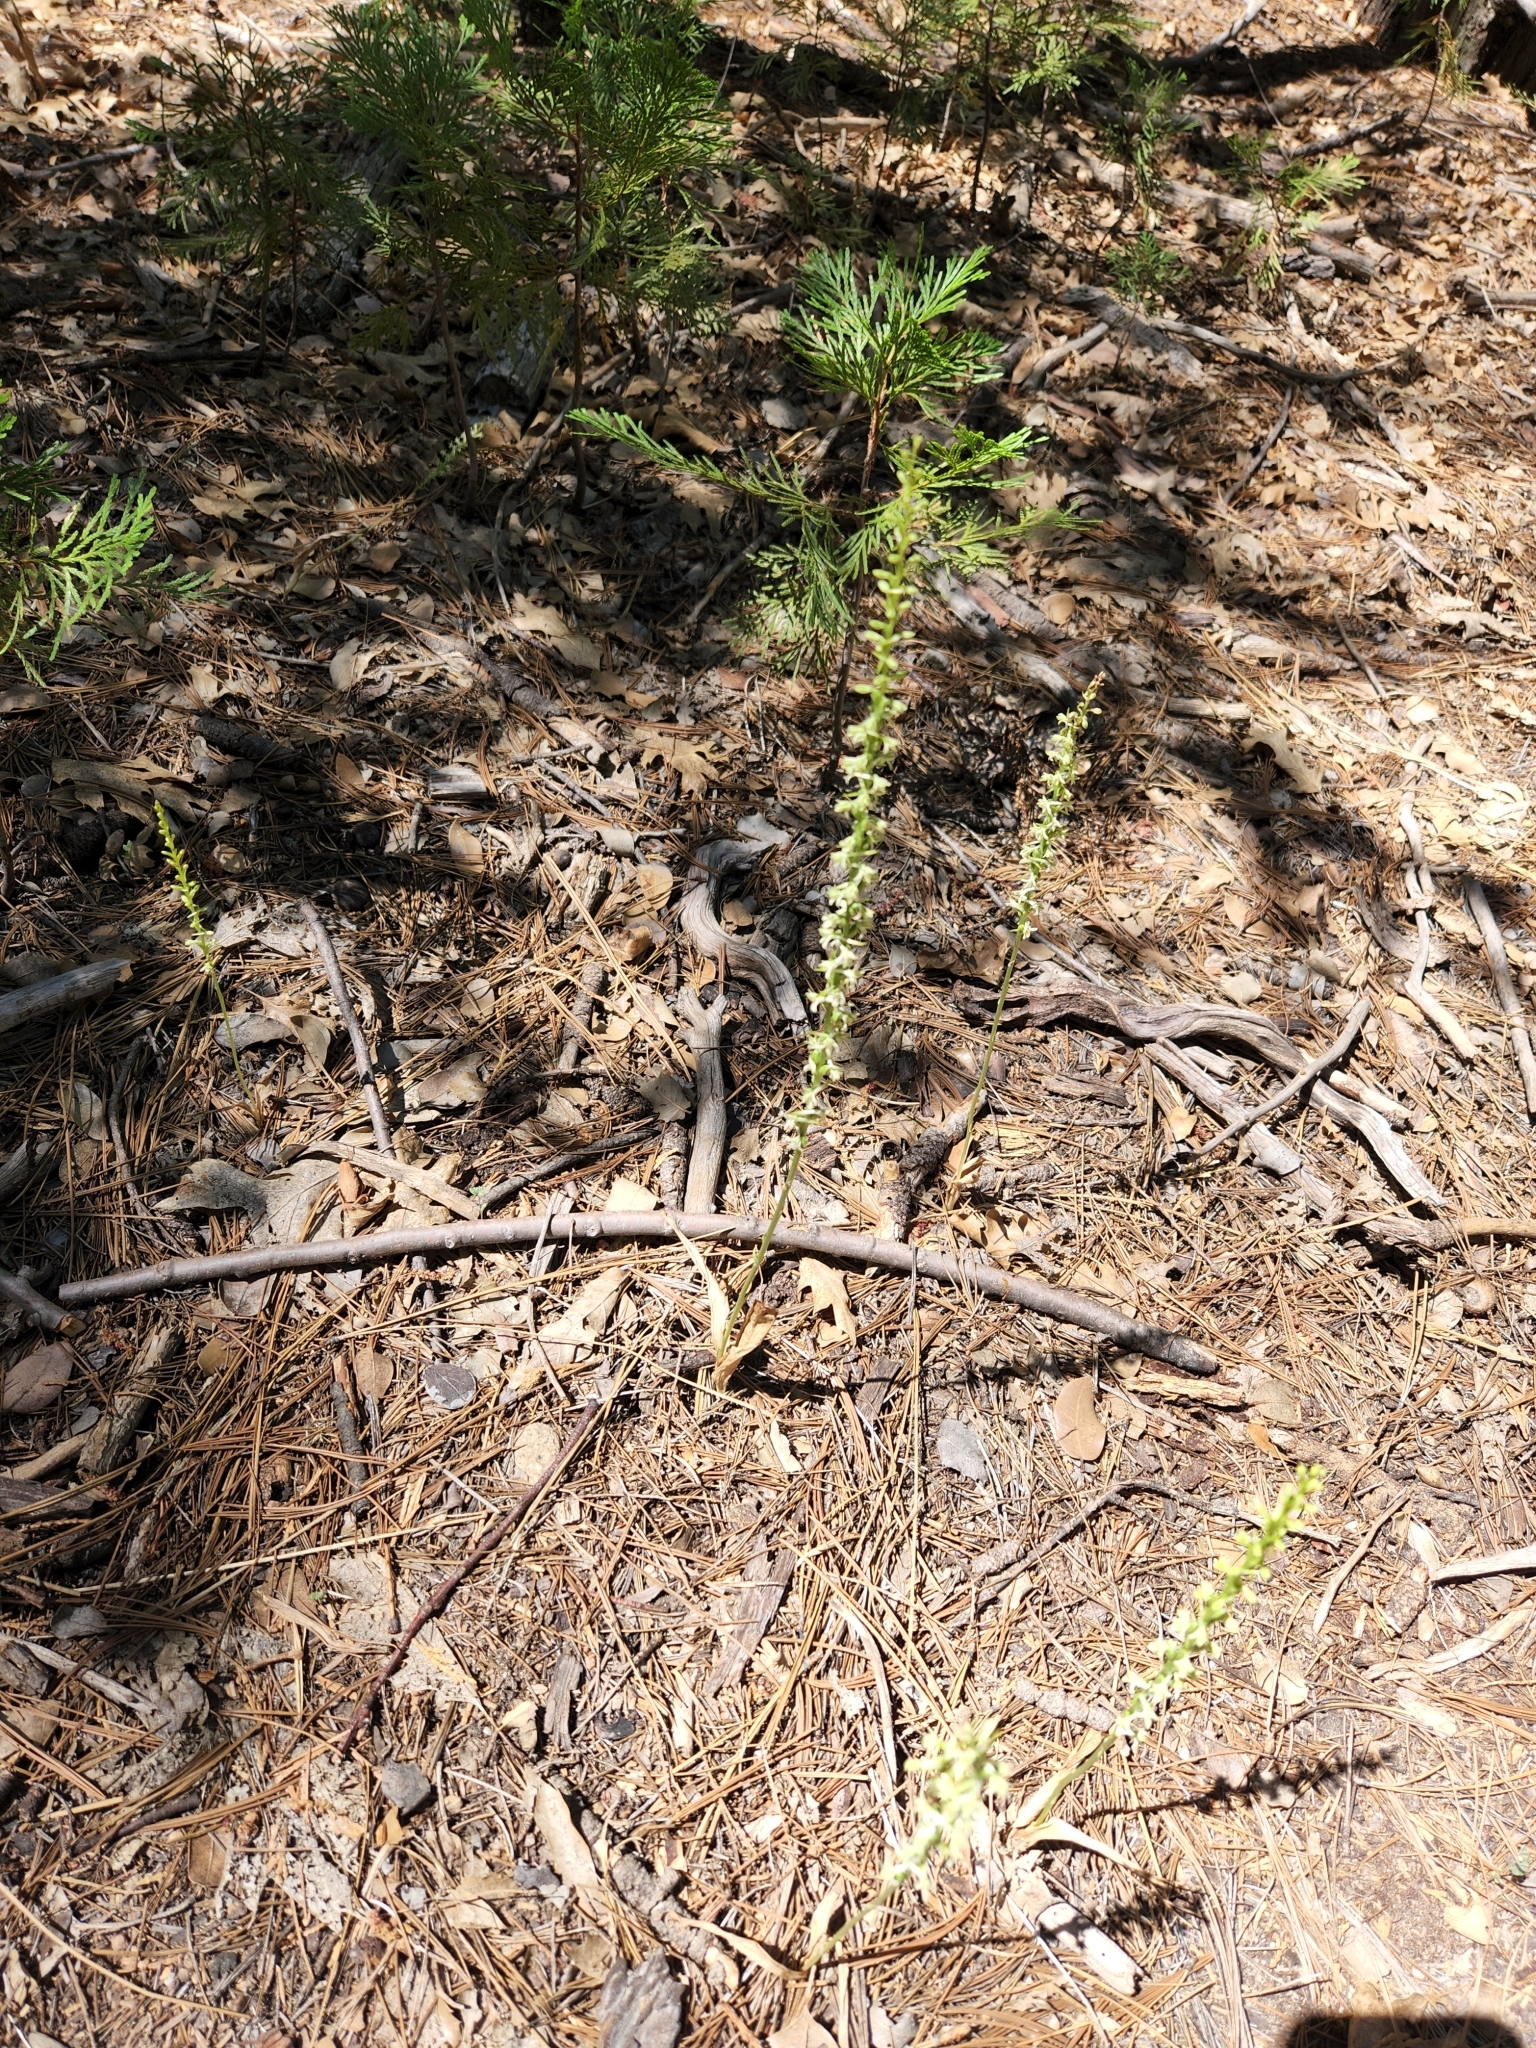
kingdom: Plantae
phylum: Tracheophyta
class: Liliopsida
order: Asparagales
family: Orchidaceae
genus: Platanthera
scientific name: Platanthera transversa
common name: Royal rein orchid
